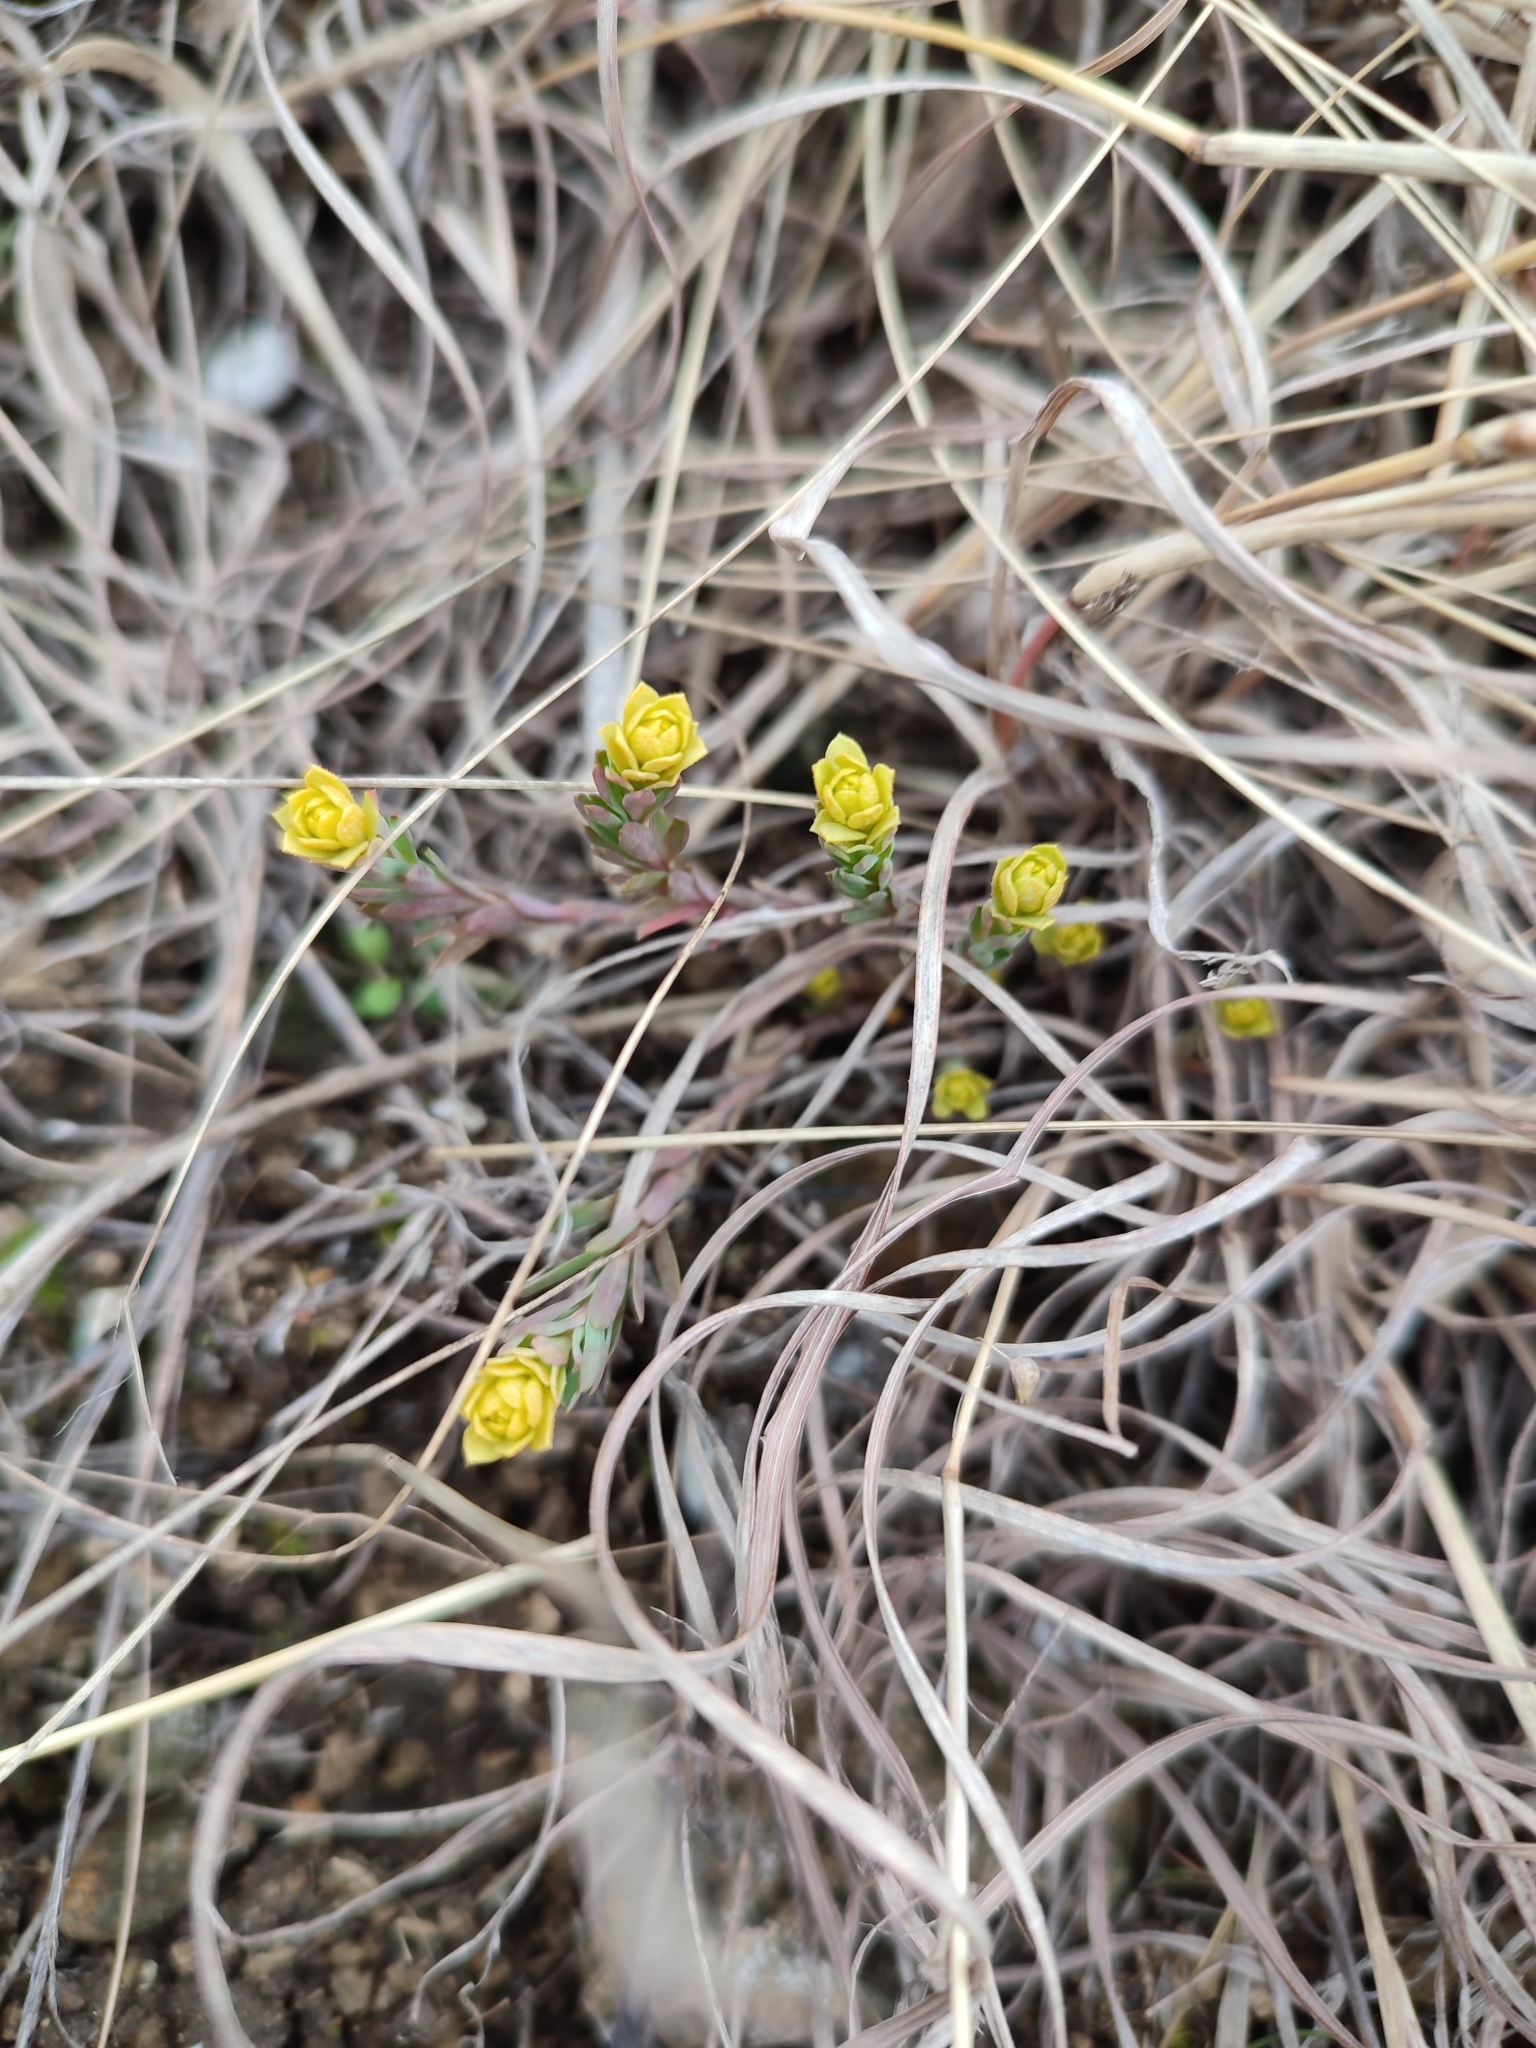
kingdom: Plantae
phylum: Tracheophyta
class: Magnoliopsida
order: Malpighiales
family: Euphorbiaceae
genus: Euphorbia
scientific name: Euphorbia seguieriana
